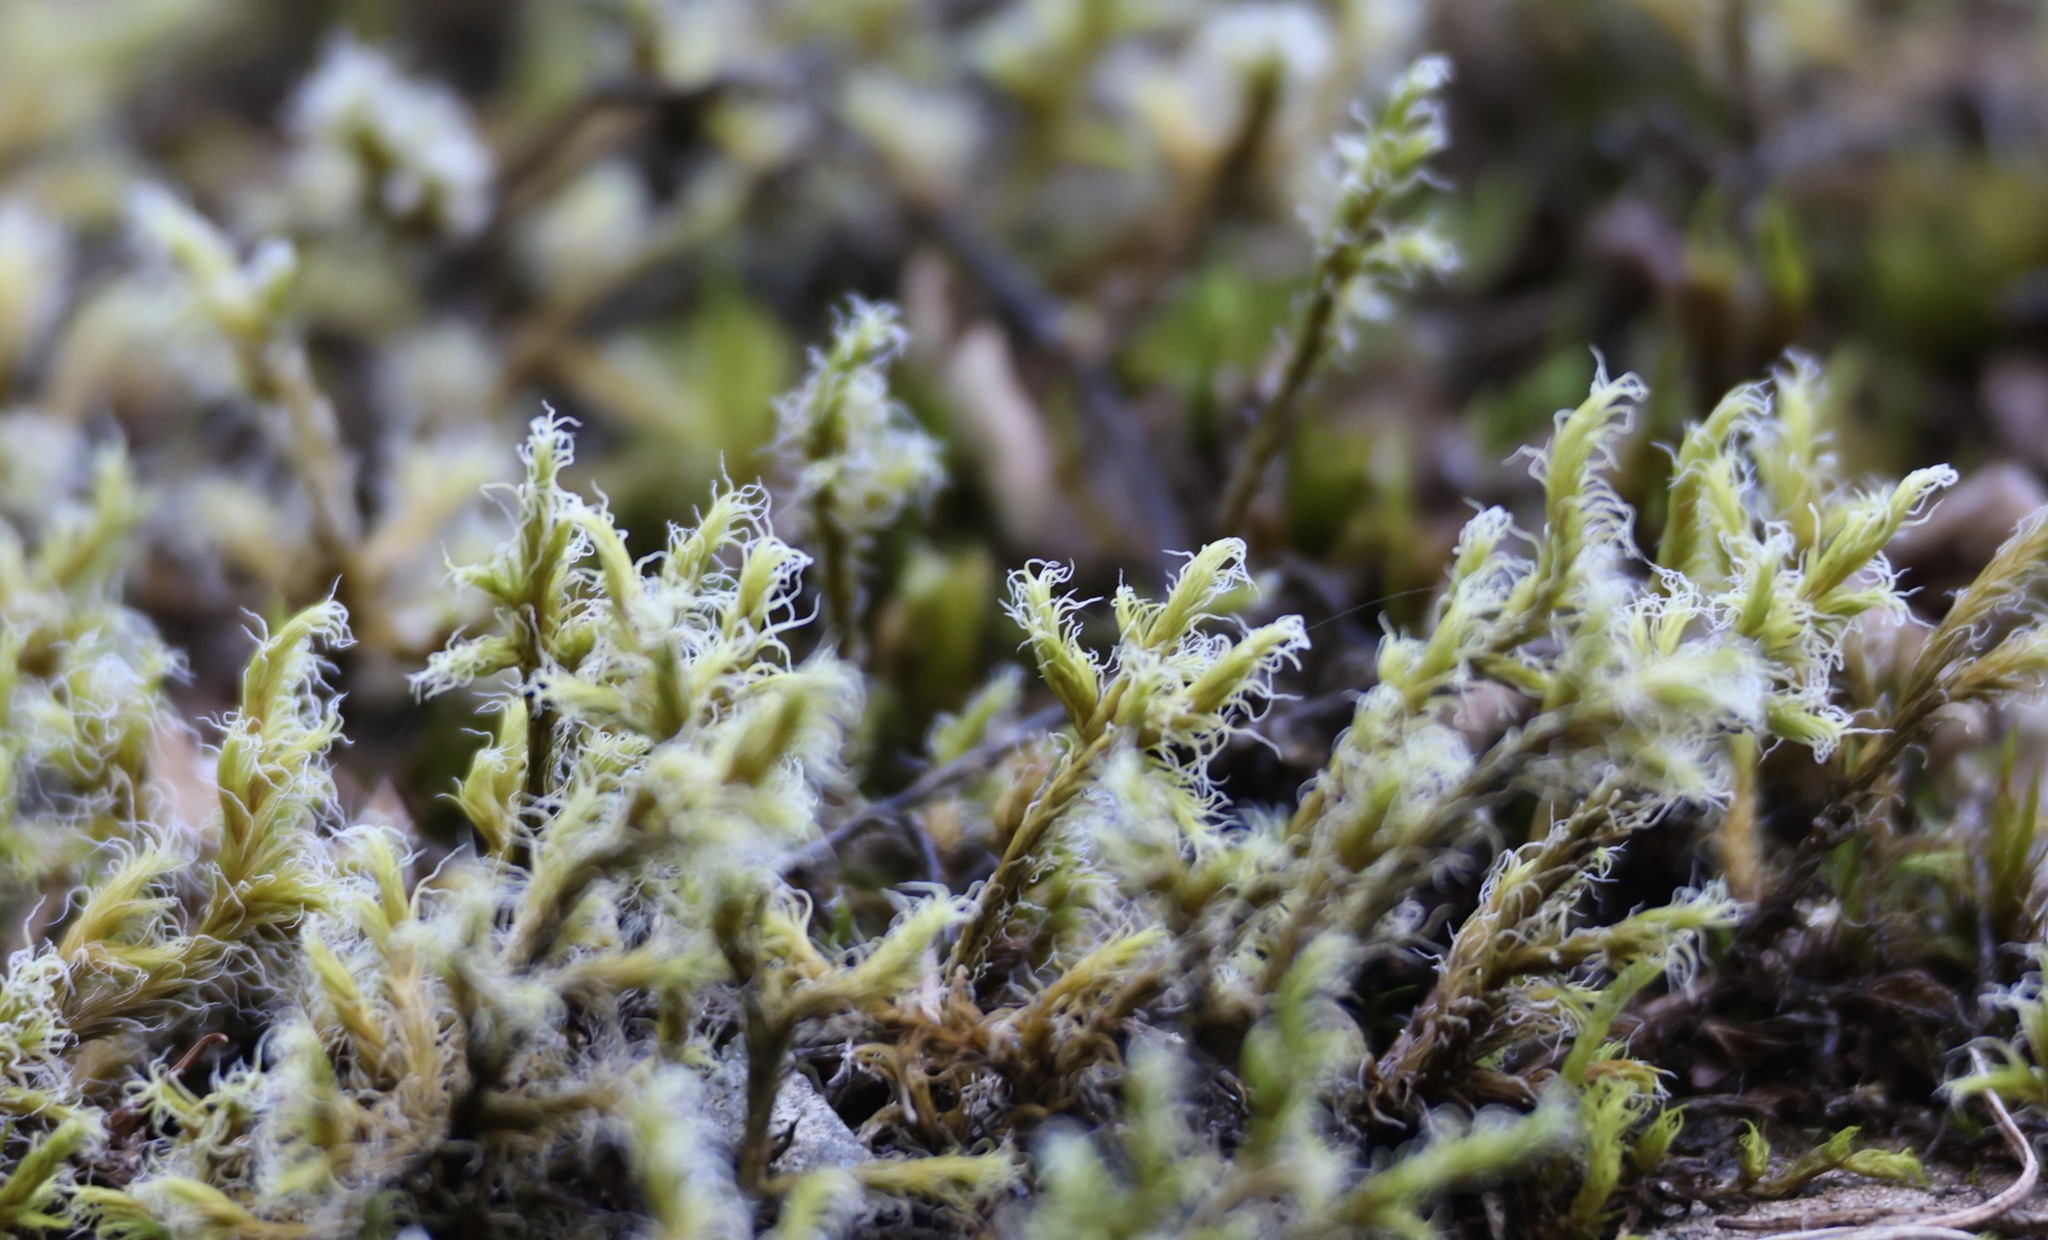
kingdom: Plantae
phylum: Bryophyta
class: Bryopsida
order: Grimmiales
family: Grimmiaceae
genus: Racomitrium
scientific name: Racomitrium lanuginosum
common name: Hoary rock moss
